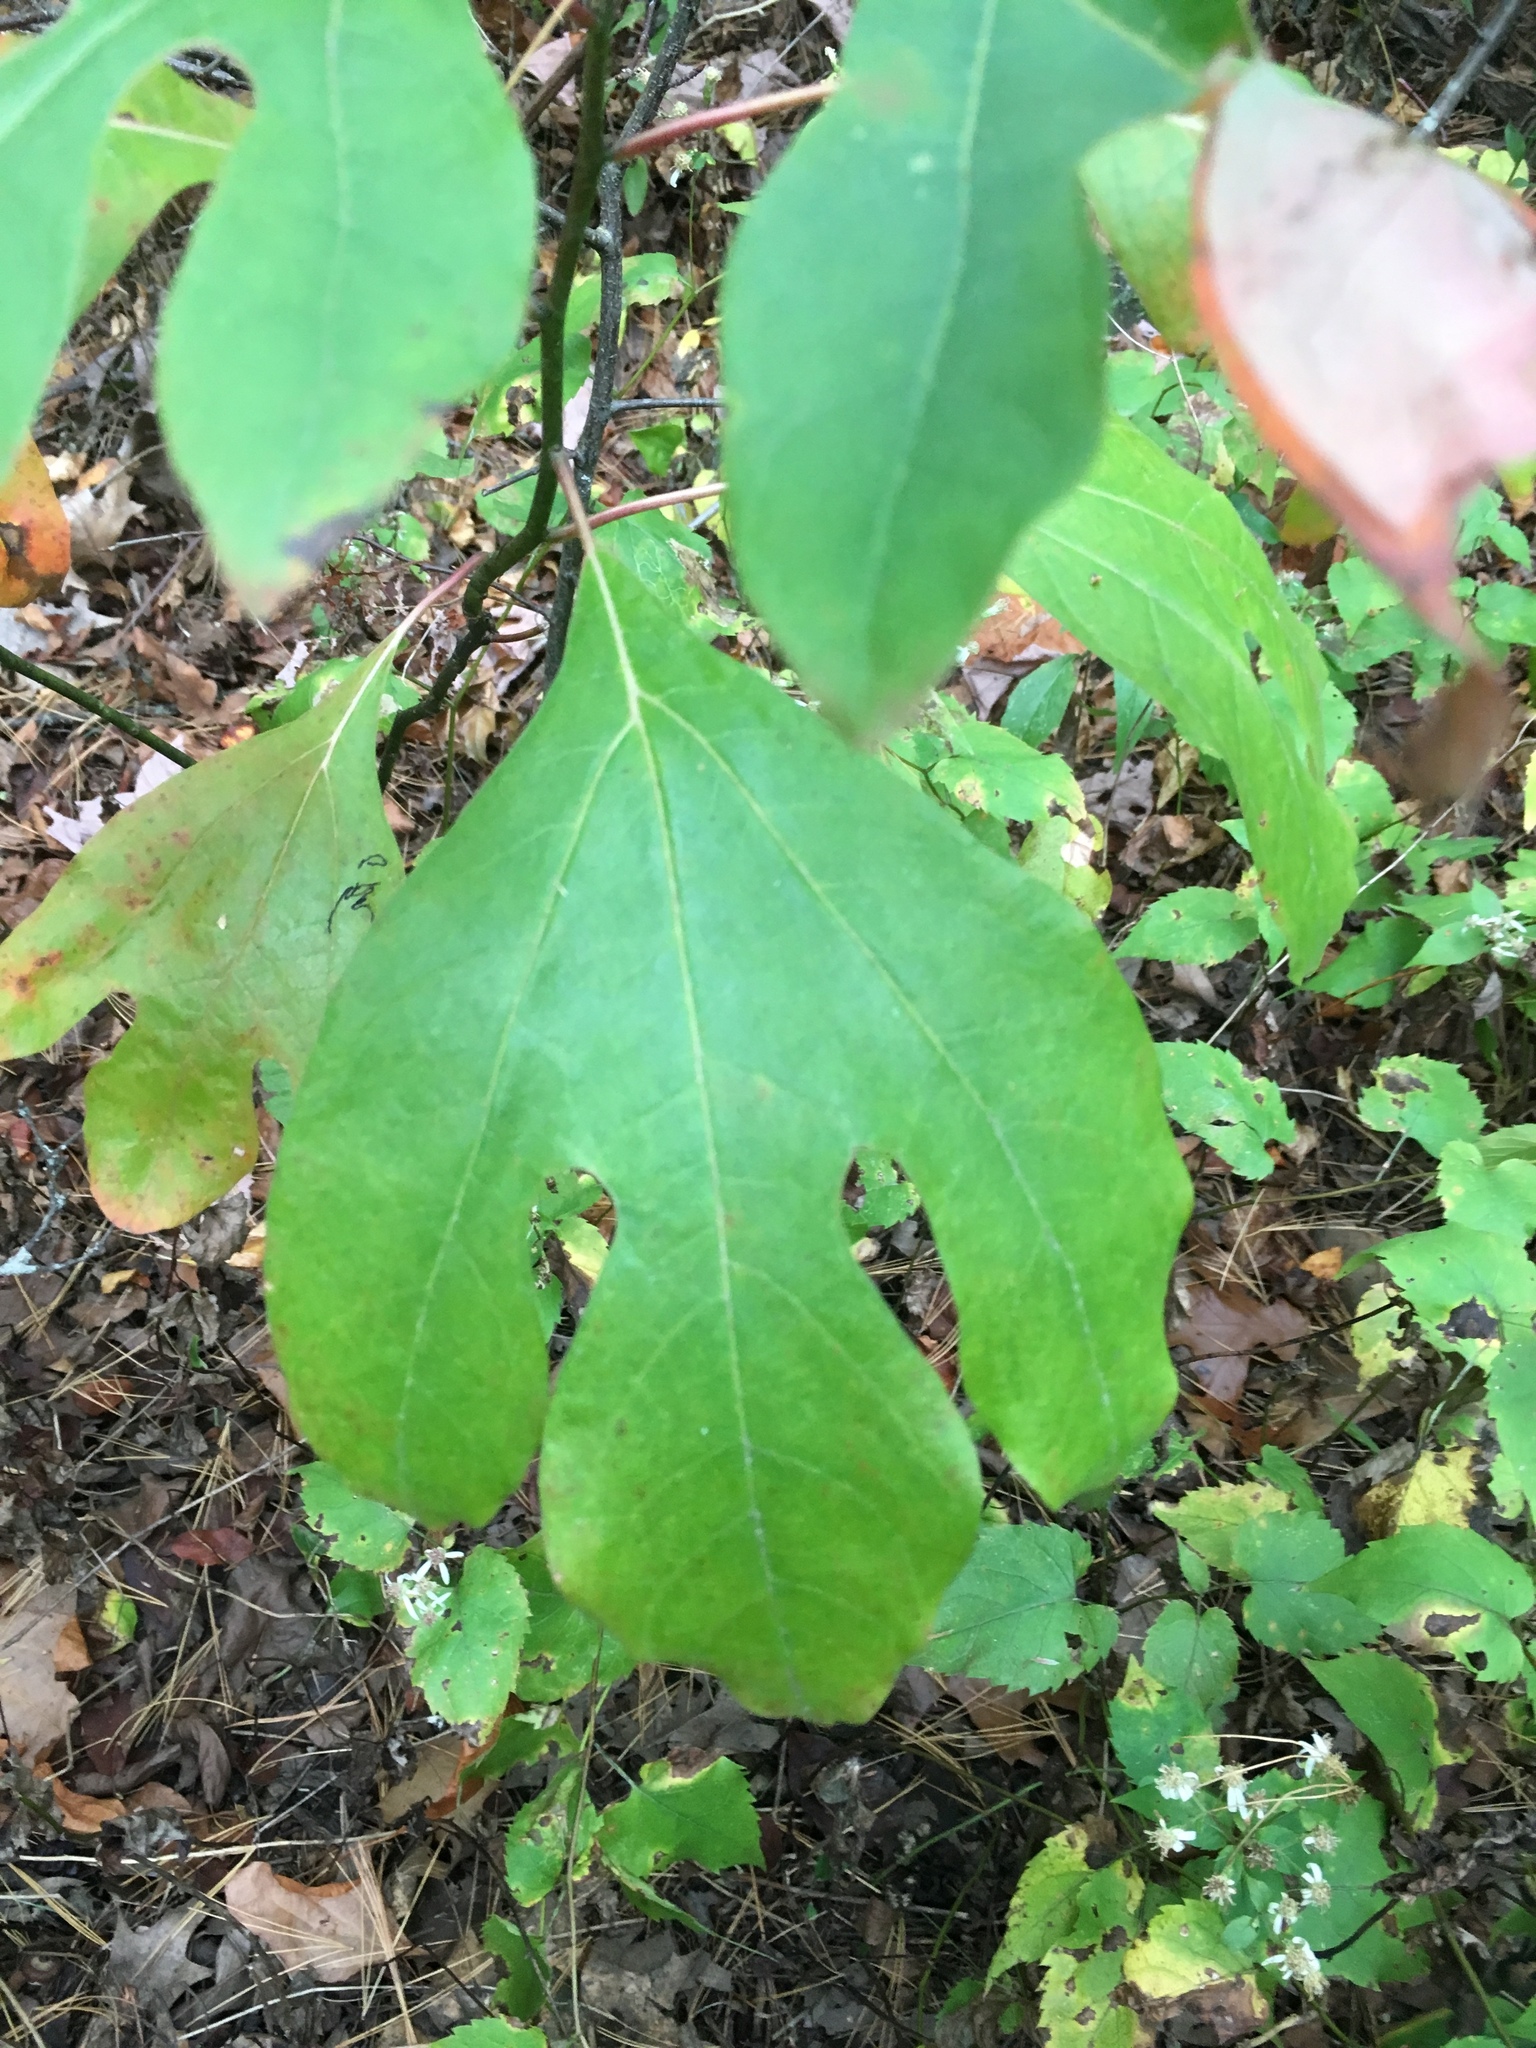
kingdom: Plantae
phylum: Tracheophyta
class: Magnoliopsida
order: Laurales
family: Lauraceae
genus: Sassafras
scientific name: Sassafras albidum
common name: Sassafras
